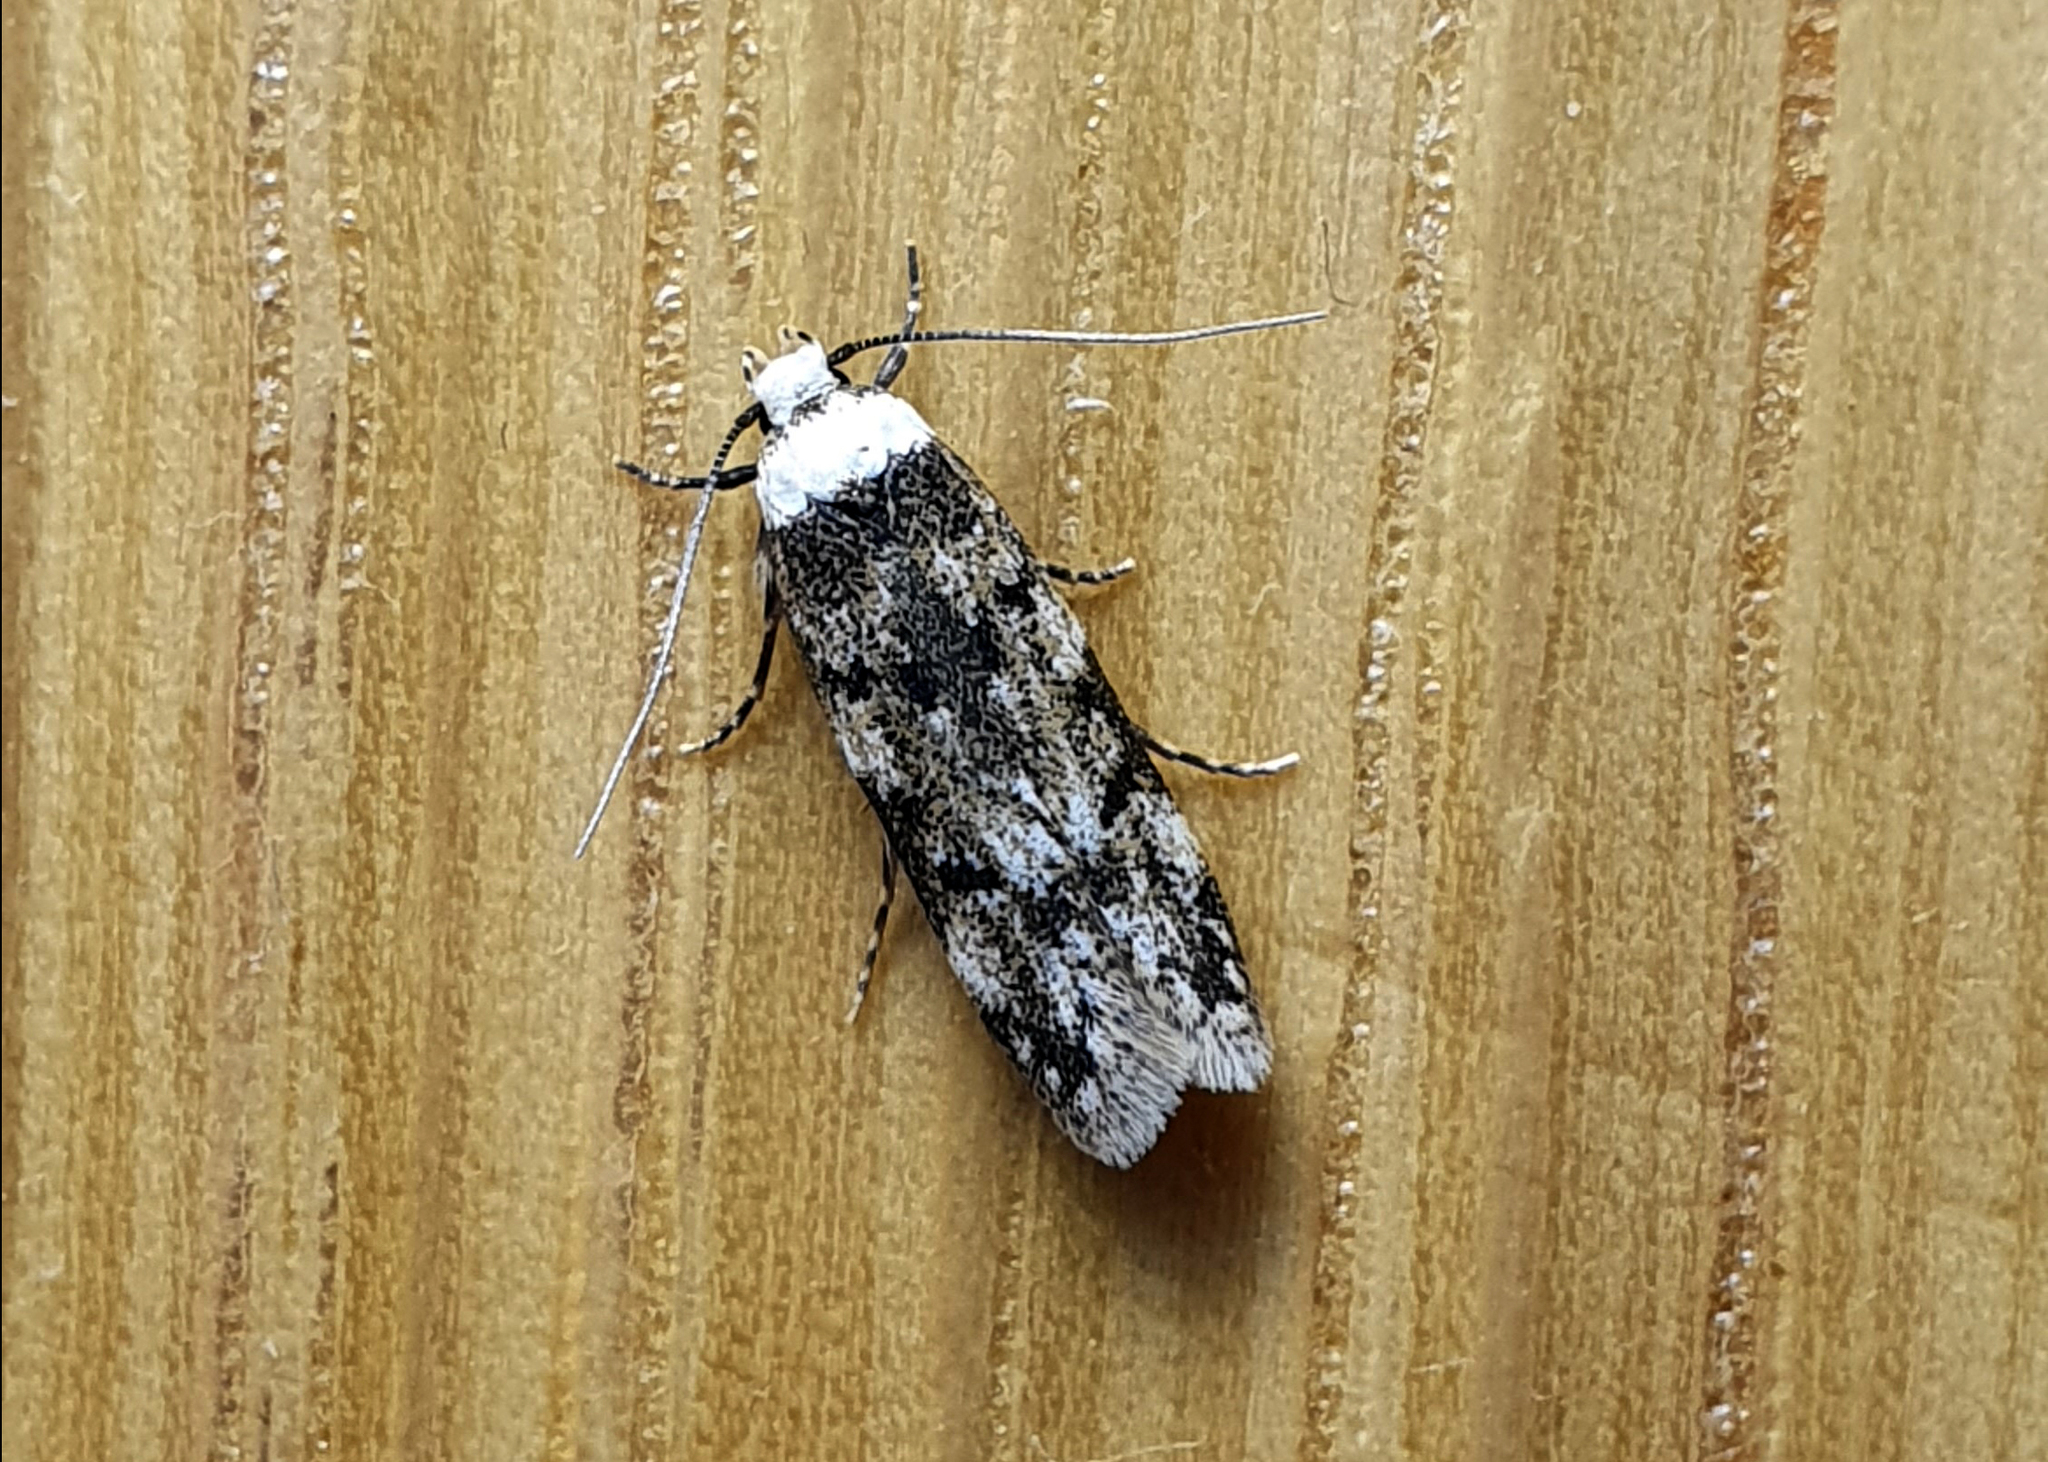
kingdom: Animalia
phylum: Arthropoda
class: Insecta
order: Lepidoptera
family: Oecophoridae
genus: Endrosis
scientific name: Endrosis sarcitrella
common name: White-shouldered house moth
